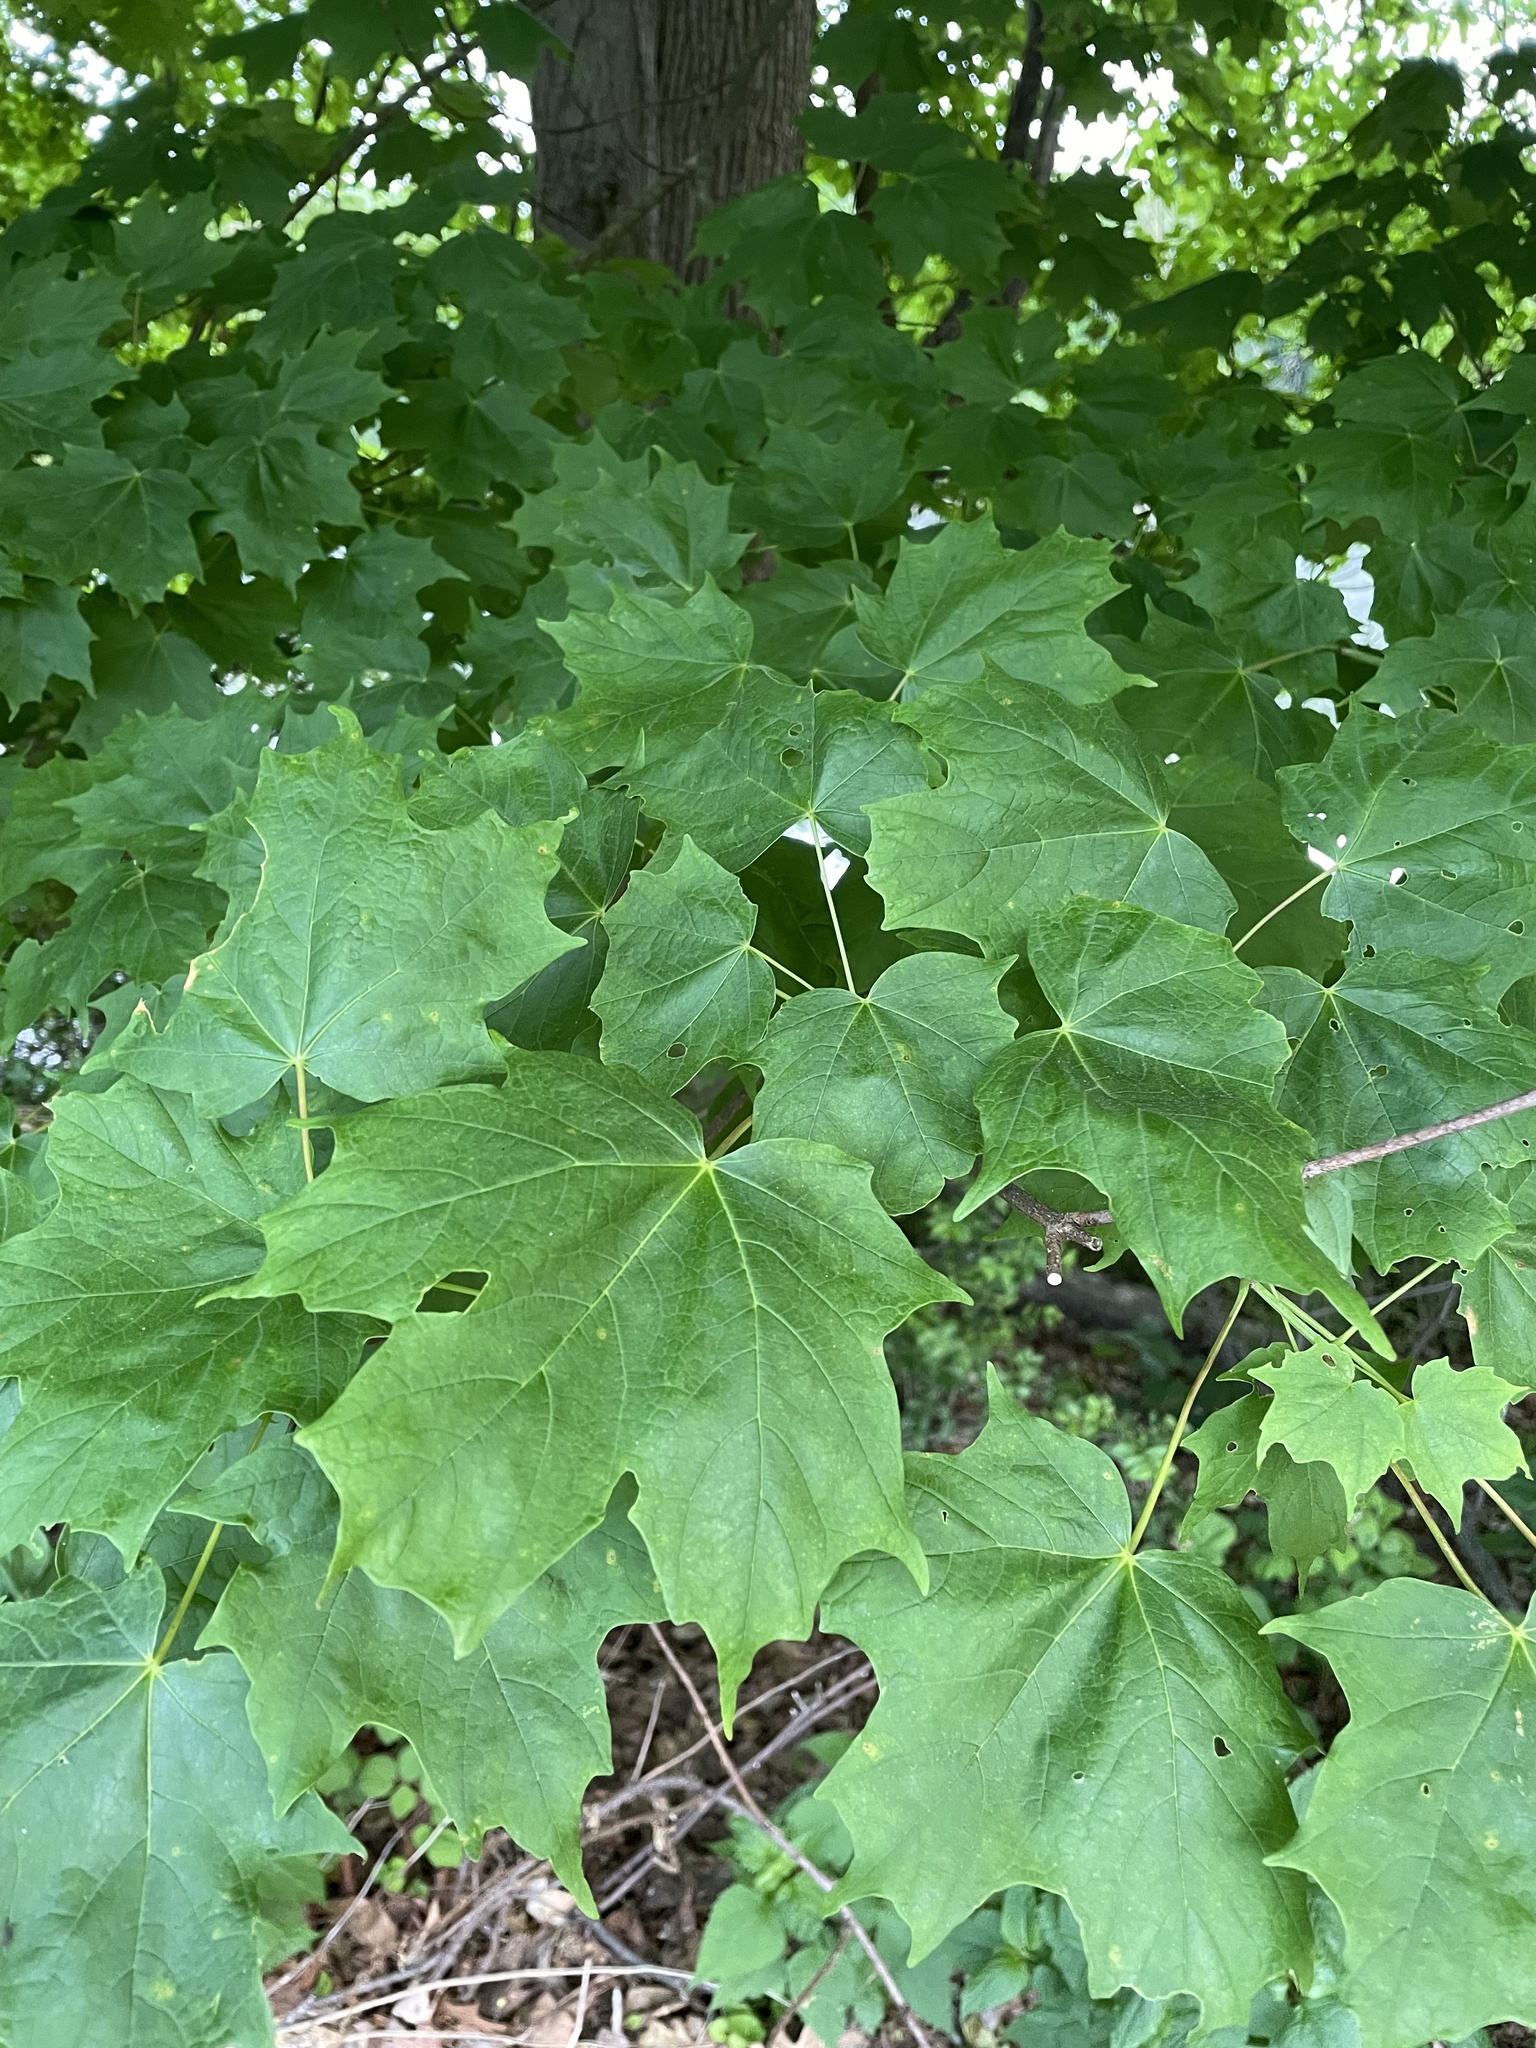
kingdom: Plantae
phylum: Tracheophyta
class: Magnoliopsida
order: Sapindales
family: Sapindaceae
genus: Acer
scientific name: Acer saccharum
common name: Sugar maple
